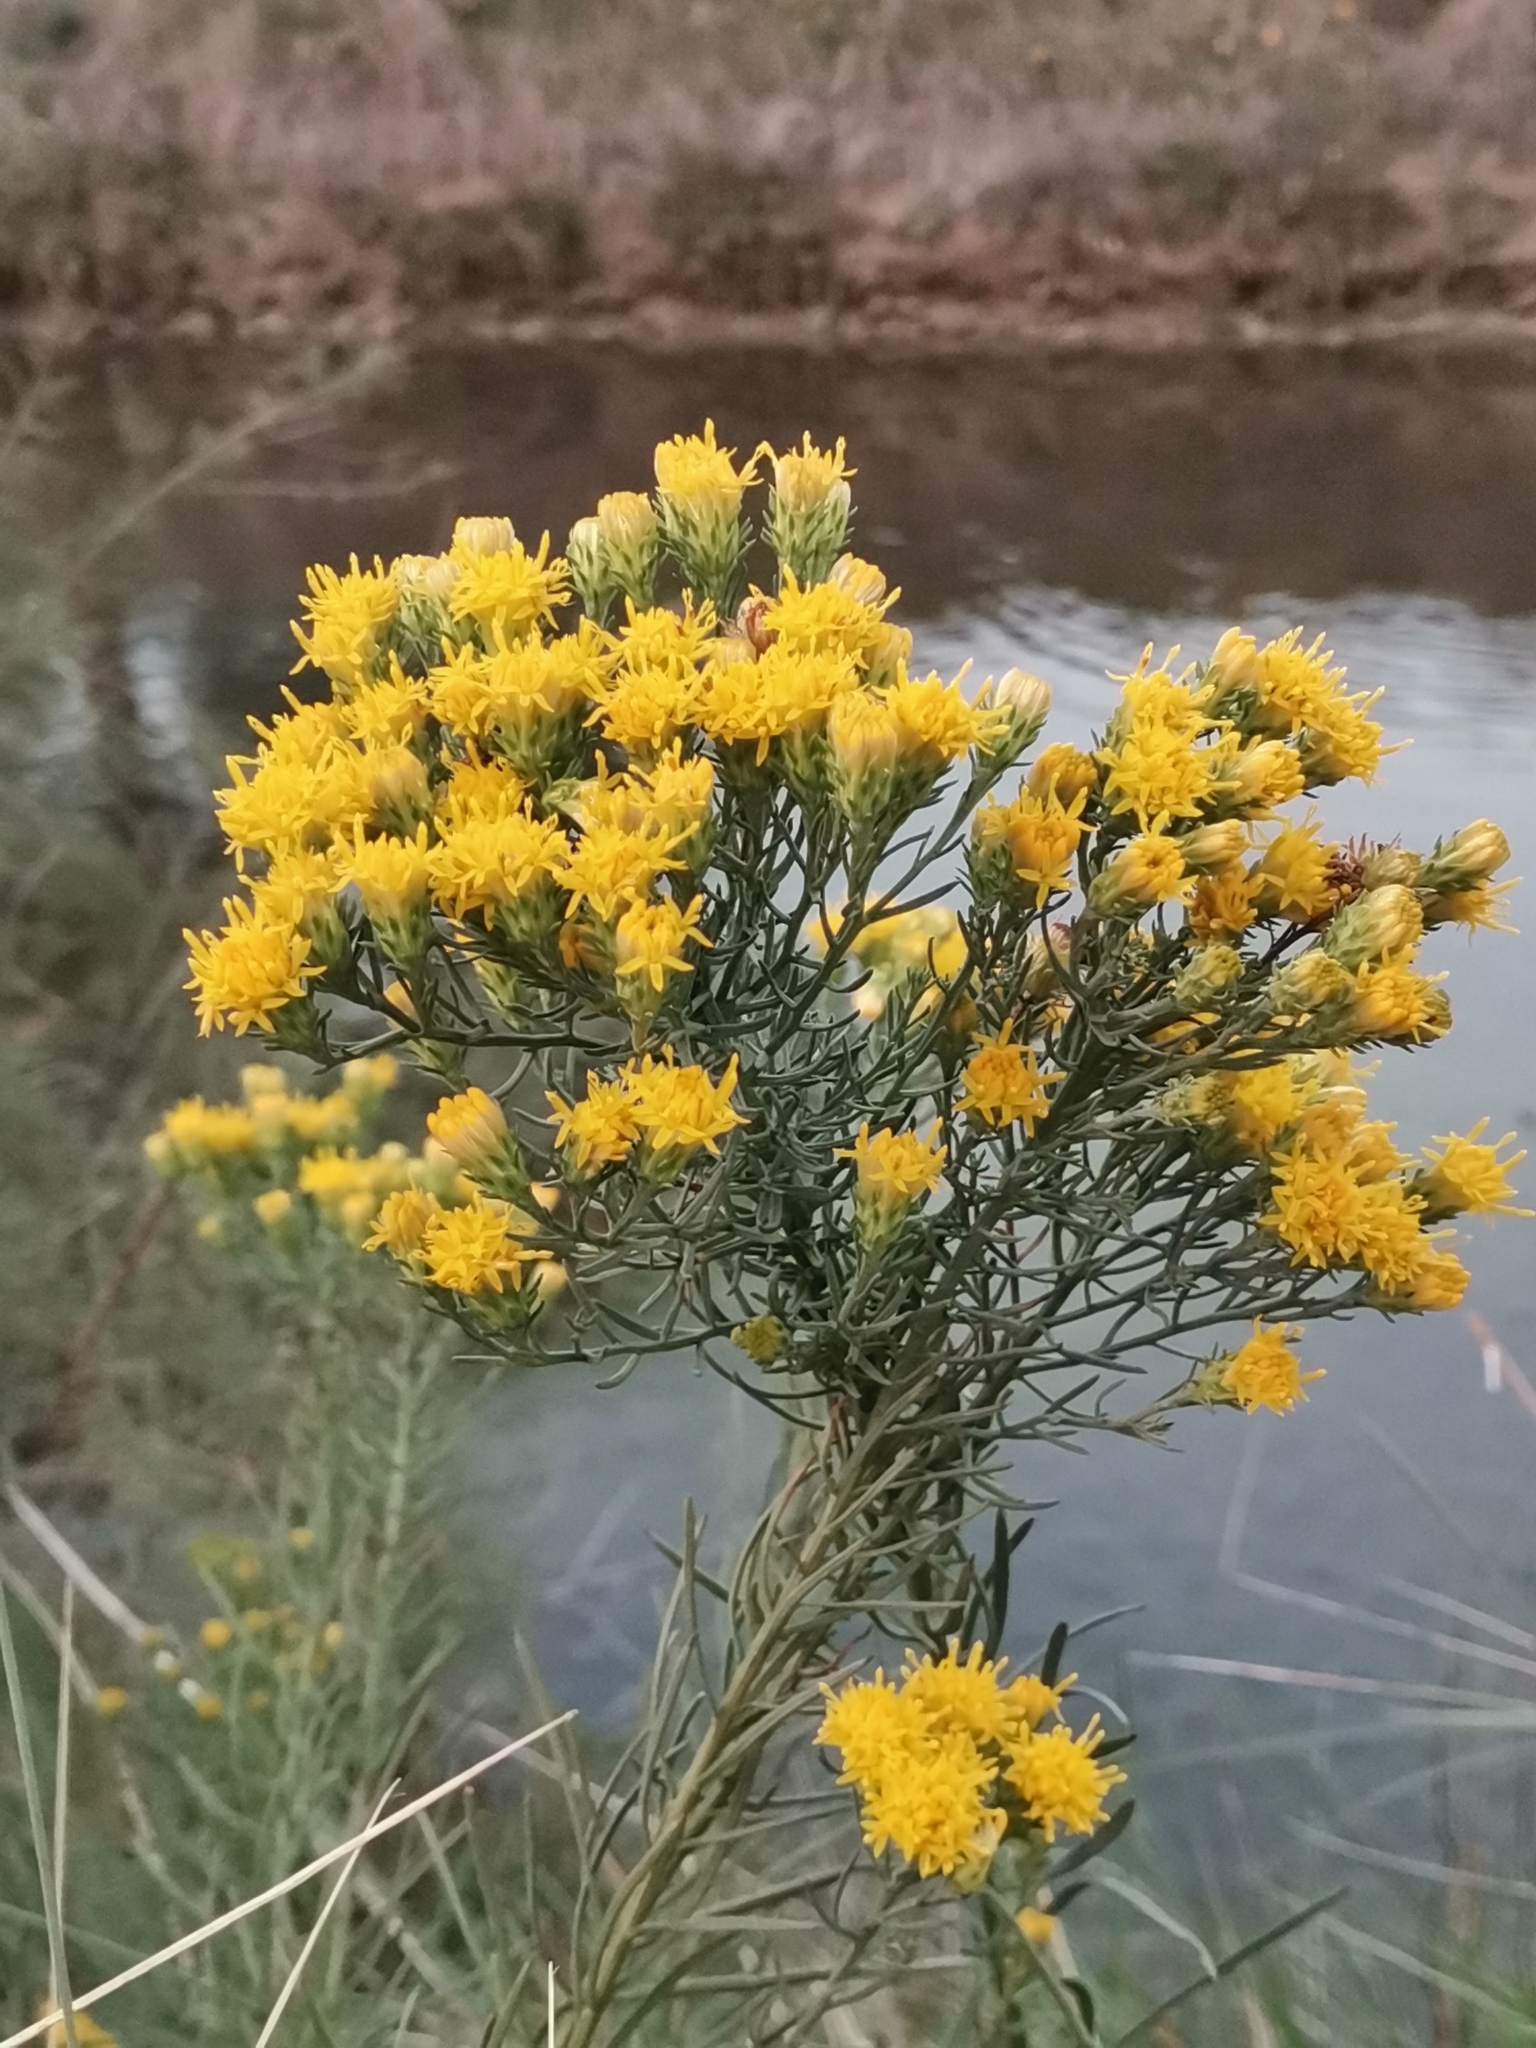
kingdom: Plantae
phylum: Tracheophyta
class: Magnoliopsida
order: Asterales
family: Asteraceae
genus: Galatella
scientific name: Galatella linosyris
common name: Goldilocks aster
